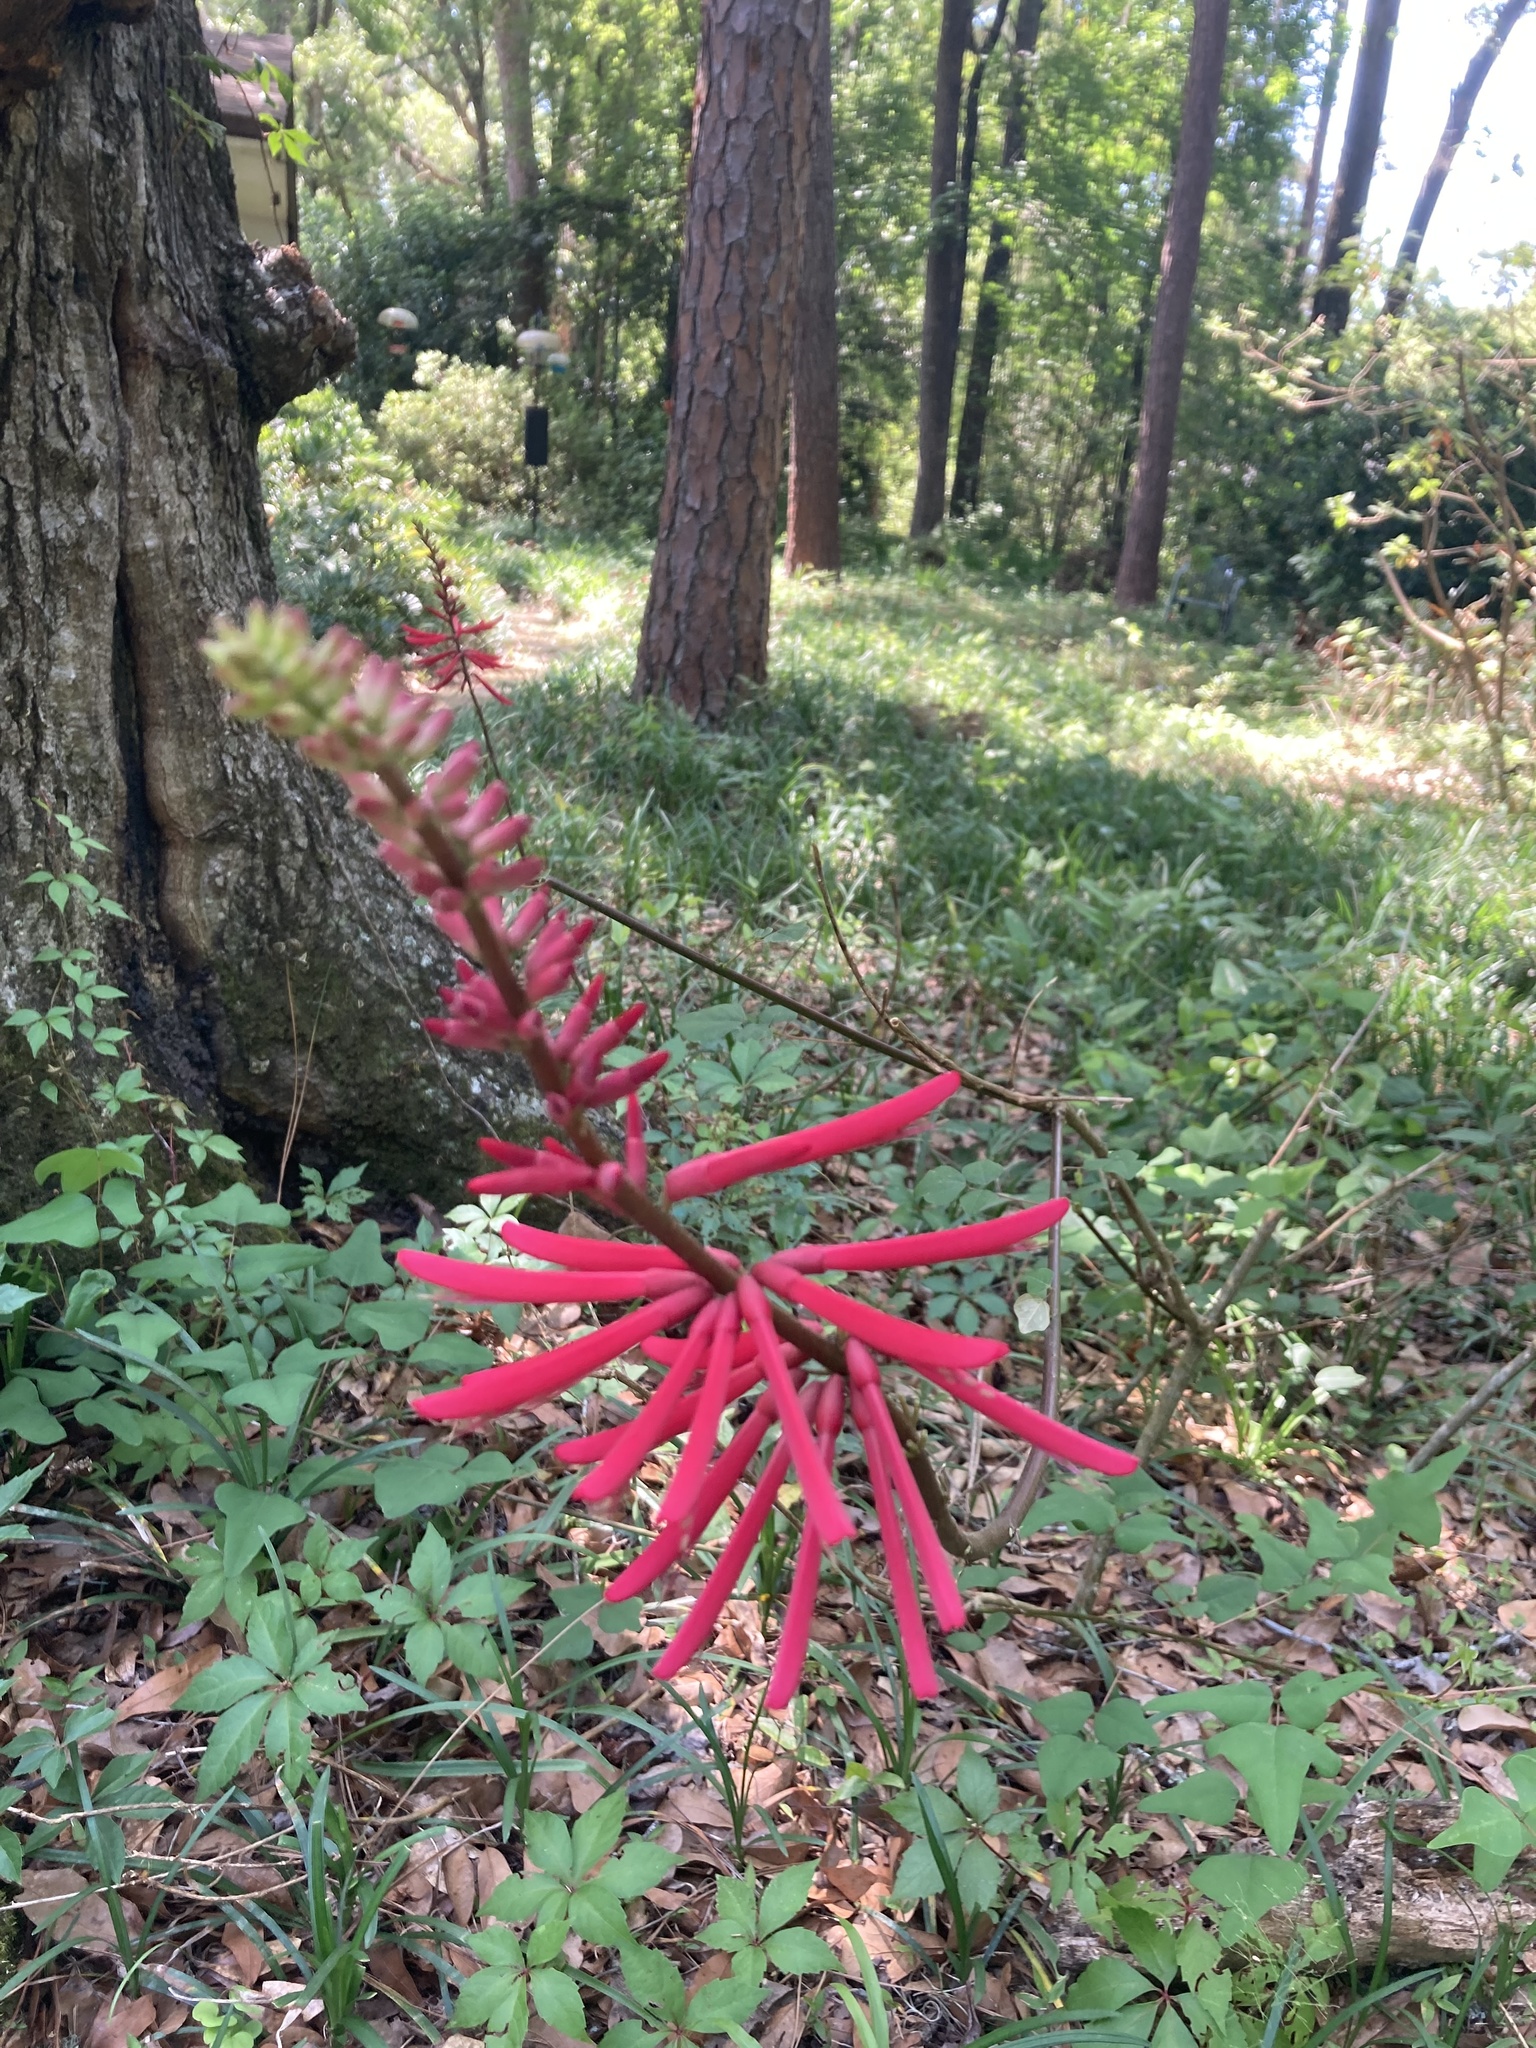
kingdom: Plantae
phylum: Tracheophyta
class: Magnoliopsida
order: Fabales
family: Fabaceae
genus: Erythrina
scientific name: Erythrina herbacea
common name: Coral-bean
